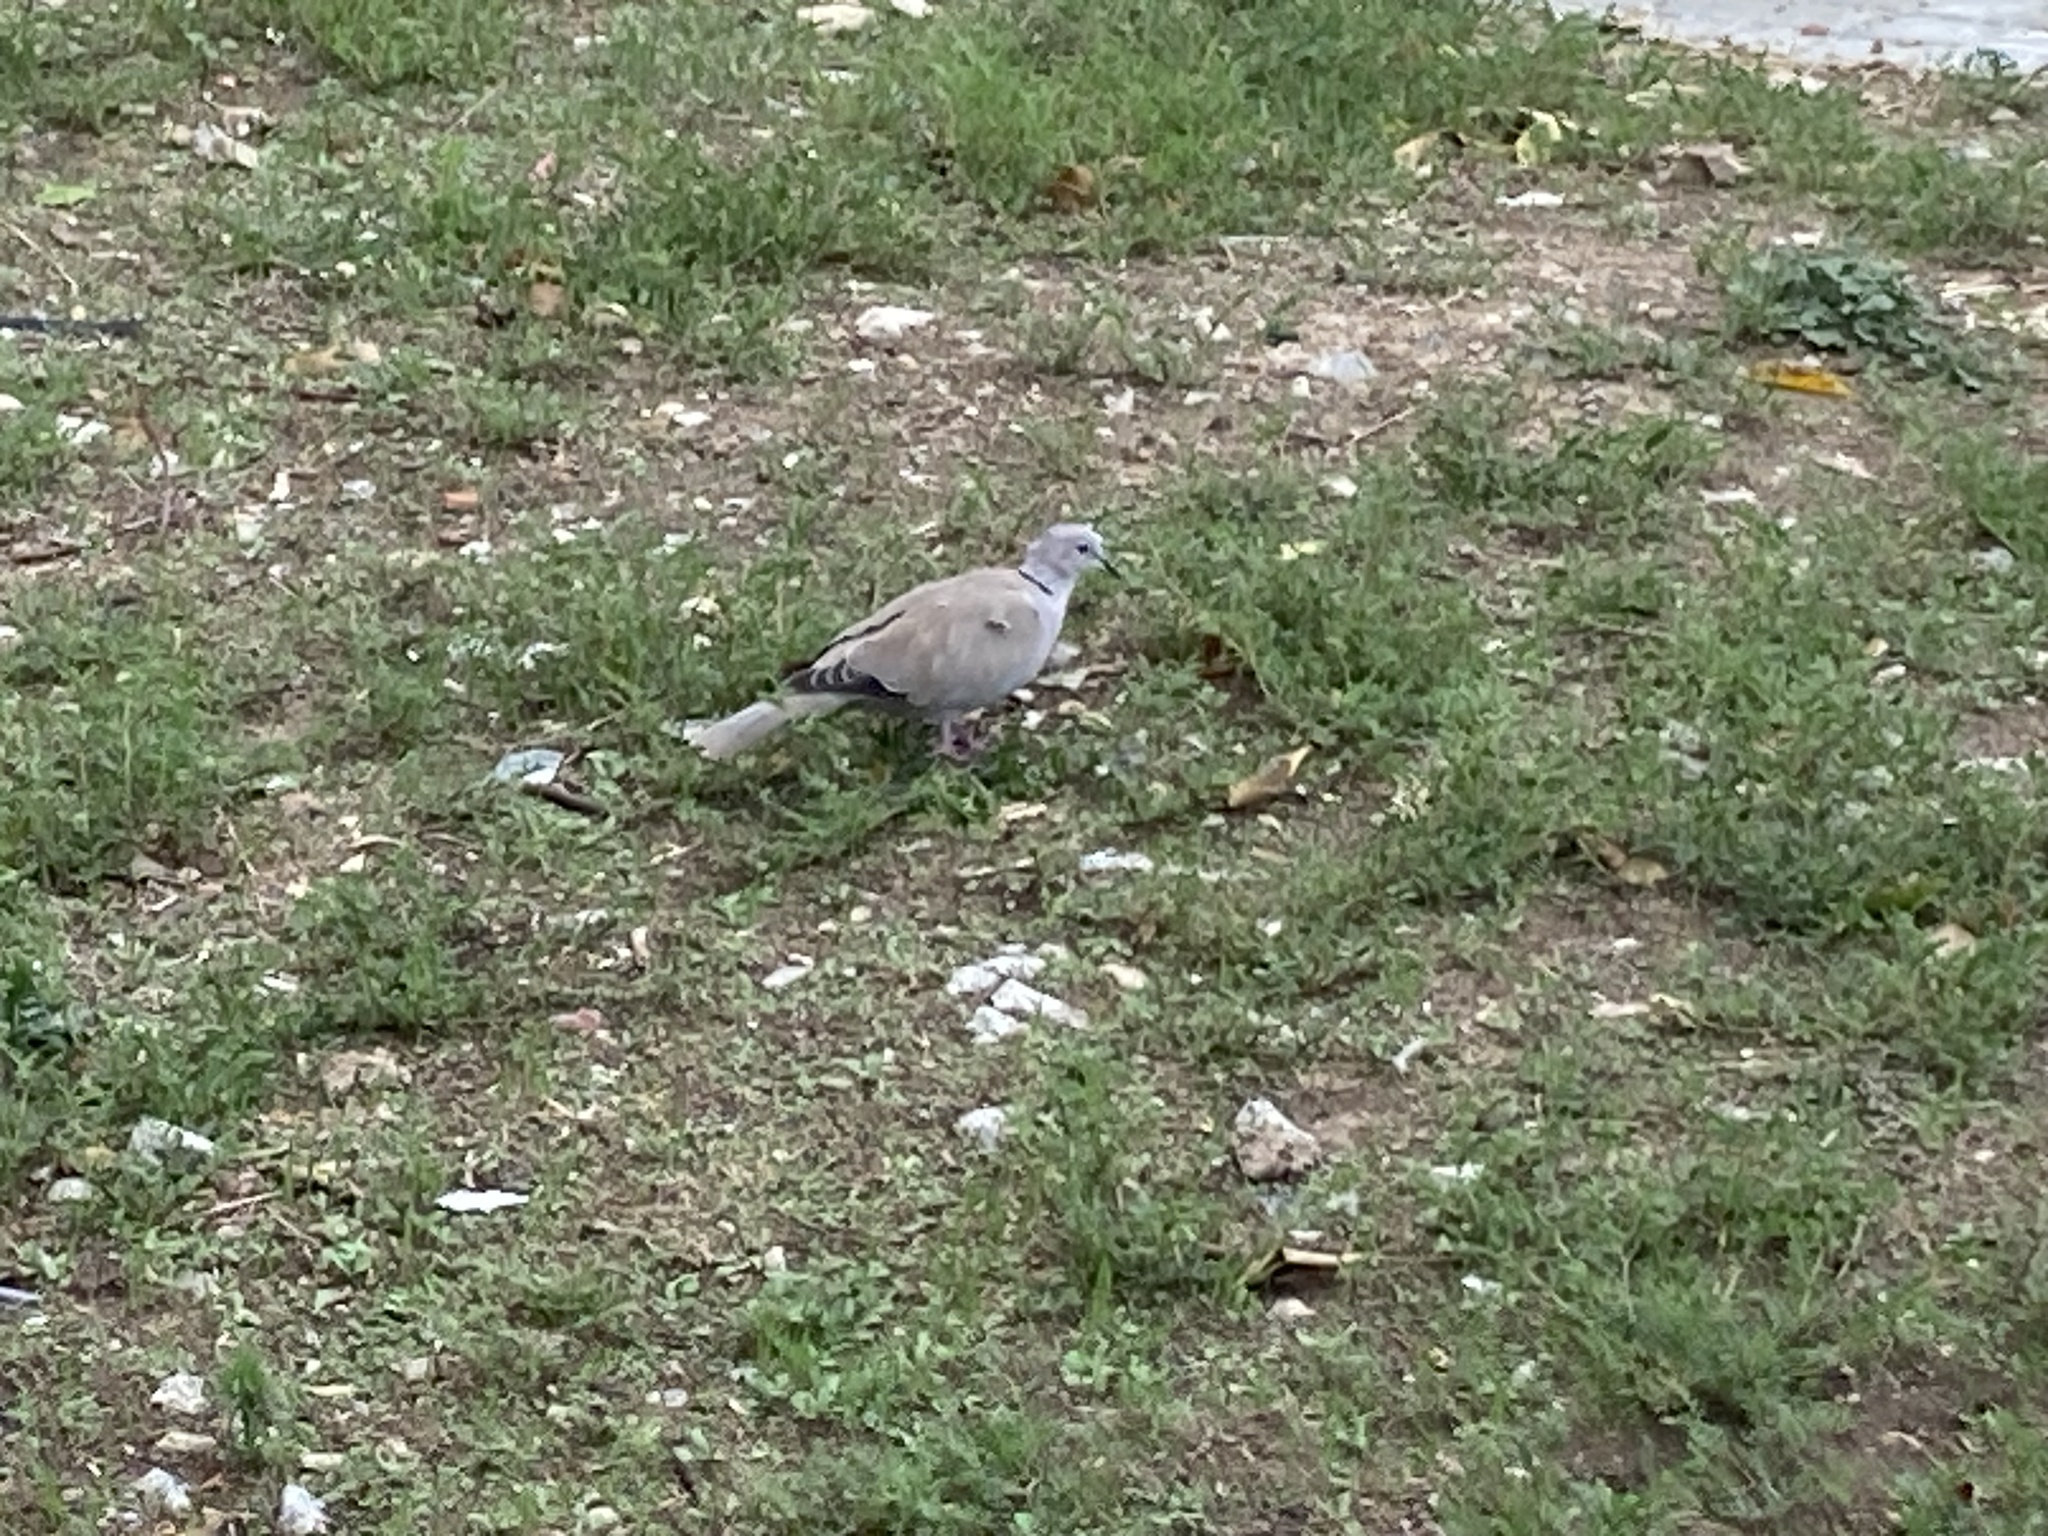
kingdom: Animalia
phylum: Chordata
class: Aves
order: Columbiformes
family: Columbidae
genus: Streptopelia
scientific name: Streptopelia decaocto
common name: Eurasian collared dove
